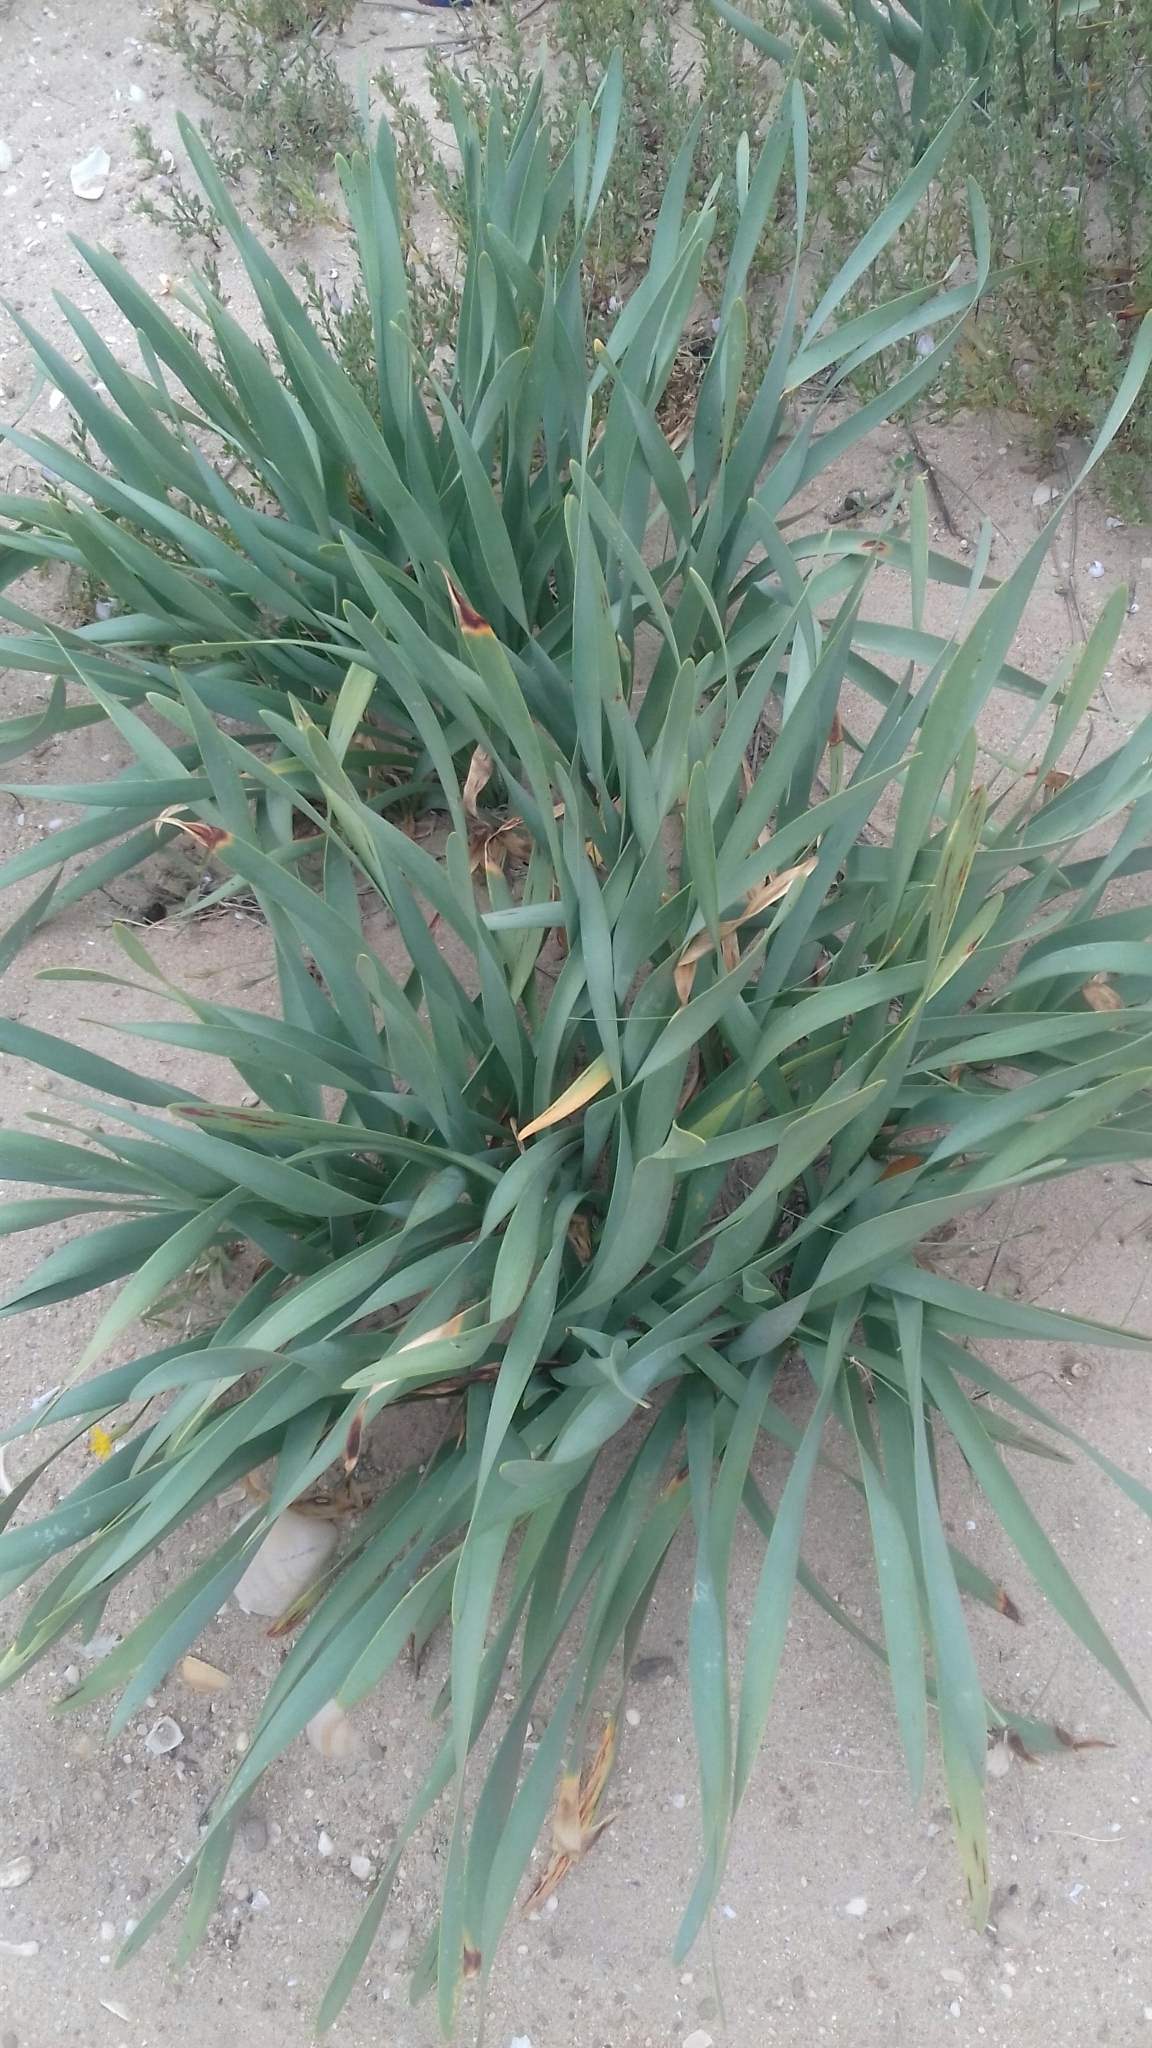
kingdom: Plantae
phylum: Tracheophyta
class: Liliopsida
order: Asparagales
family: Amaryllidaceae
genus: Pancratium
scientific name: Pancratium maritimum
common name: Sea-daffodil
